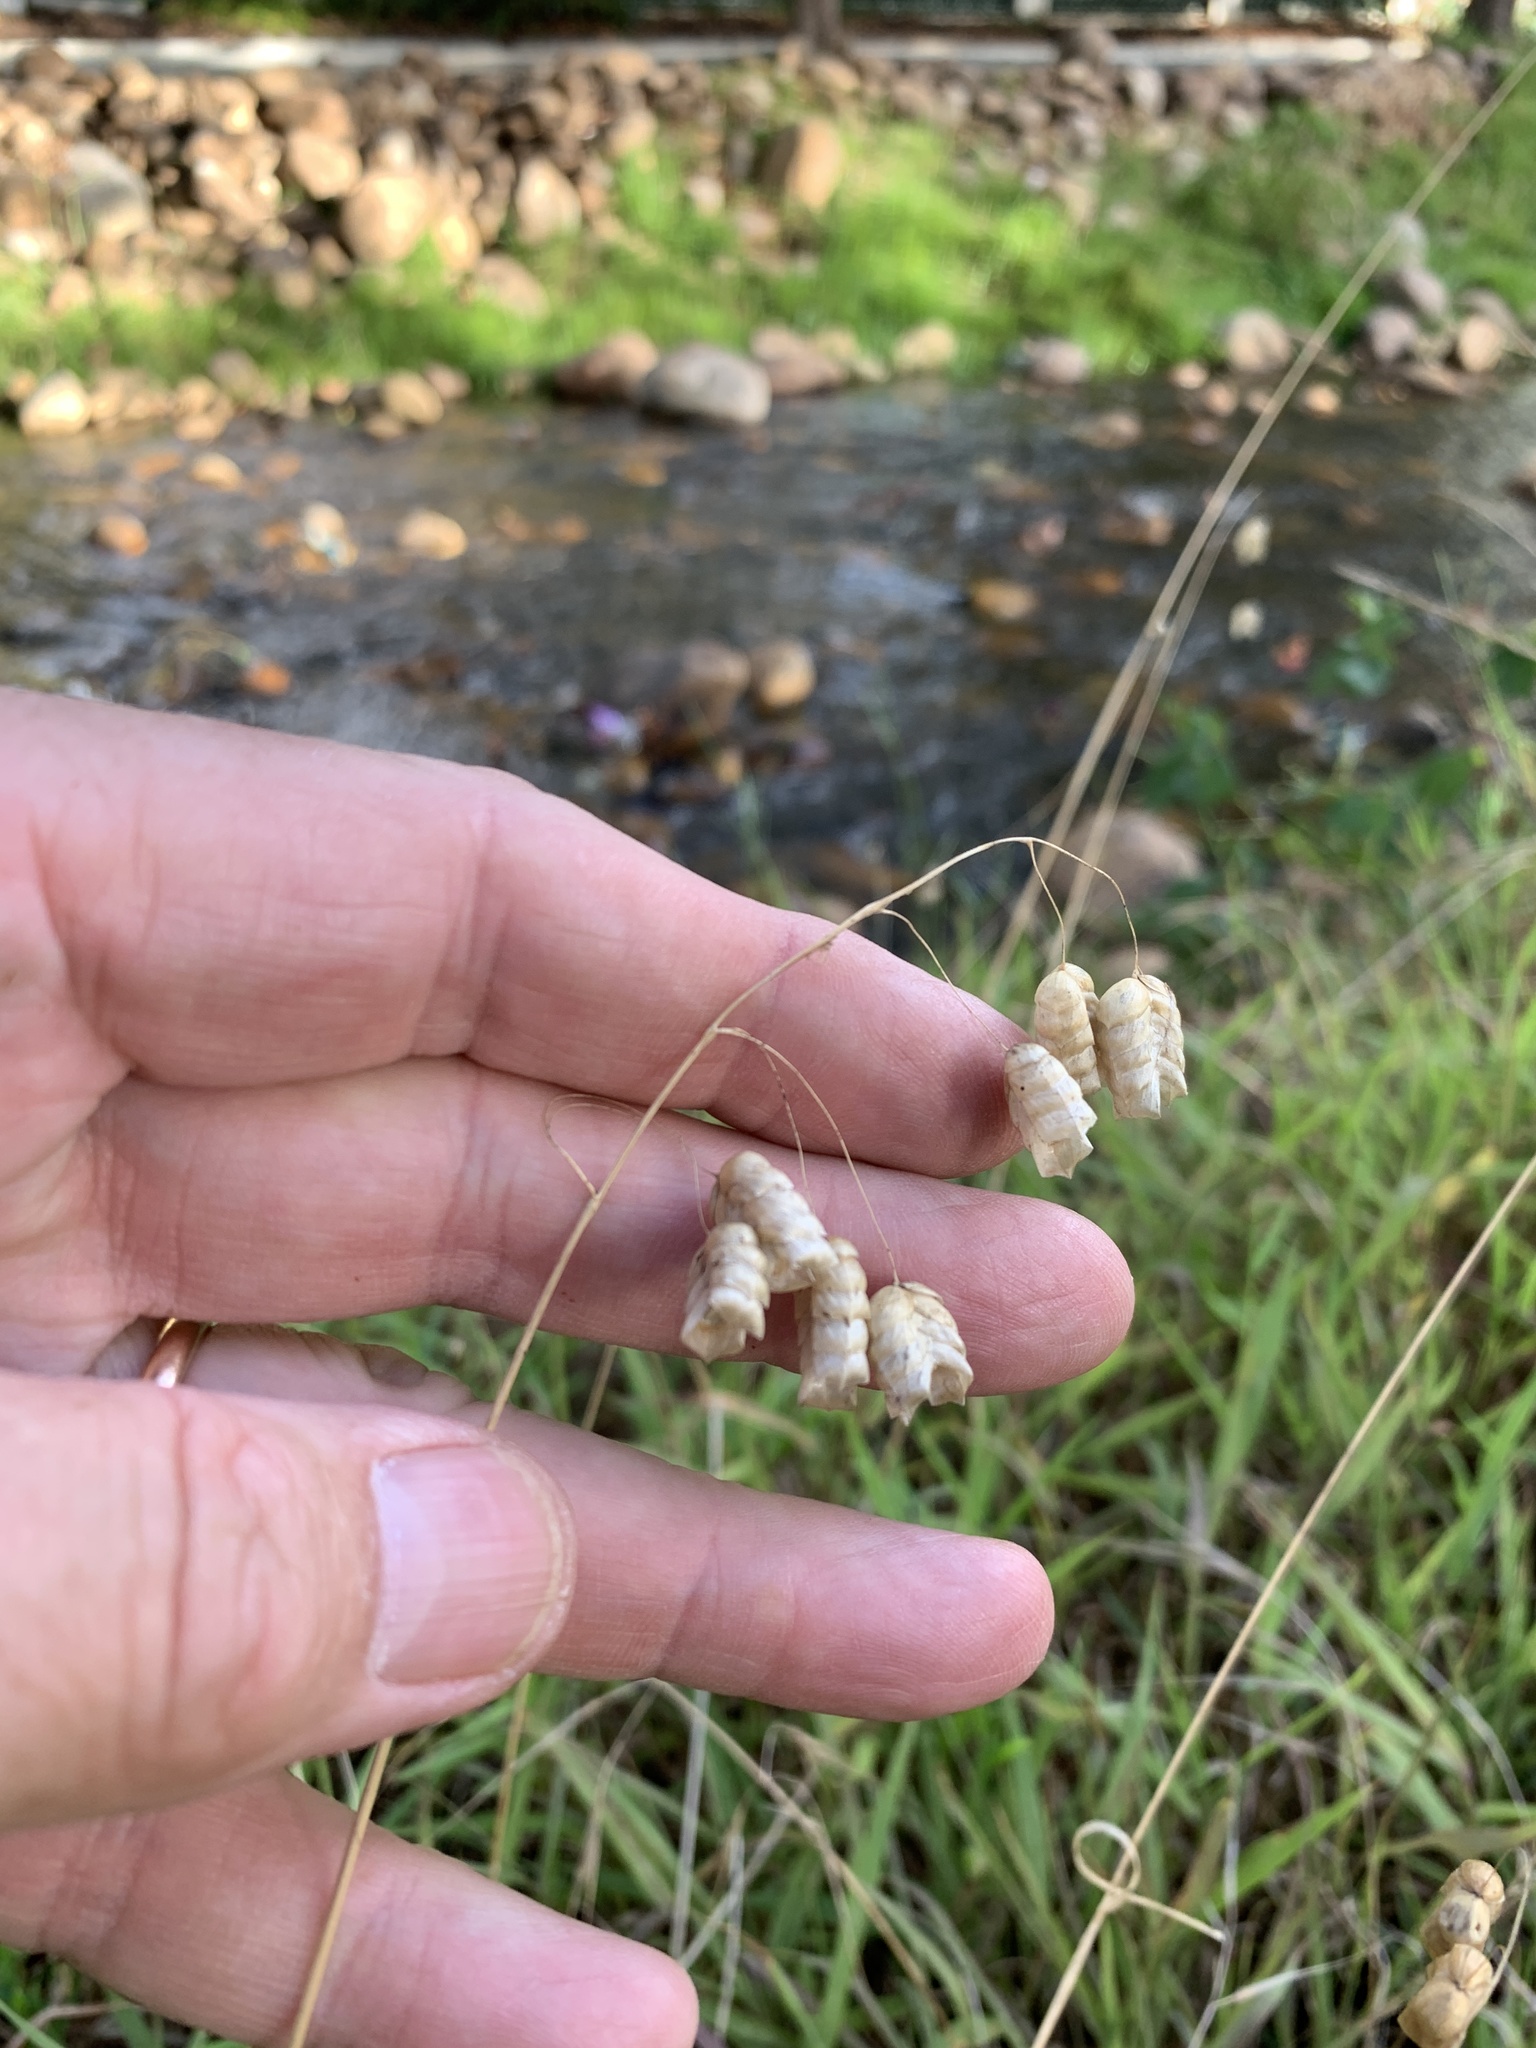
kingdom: Plantae
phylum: Tracheophyta
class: Liliopsida
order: Poales
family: Poaceae
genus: Briza
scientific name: Briza maxima
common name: Big quakinggrass
